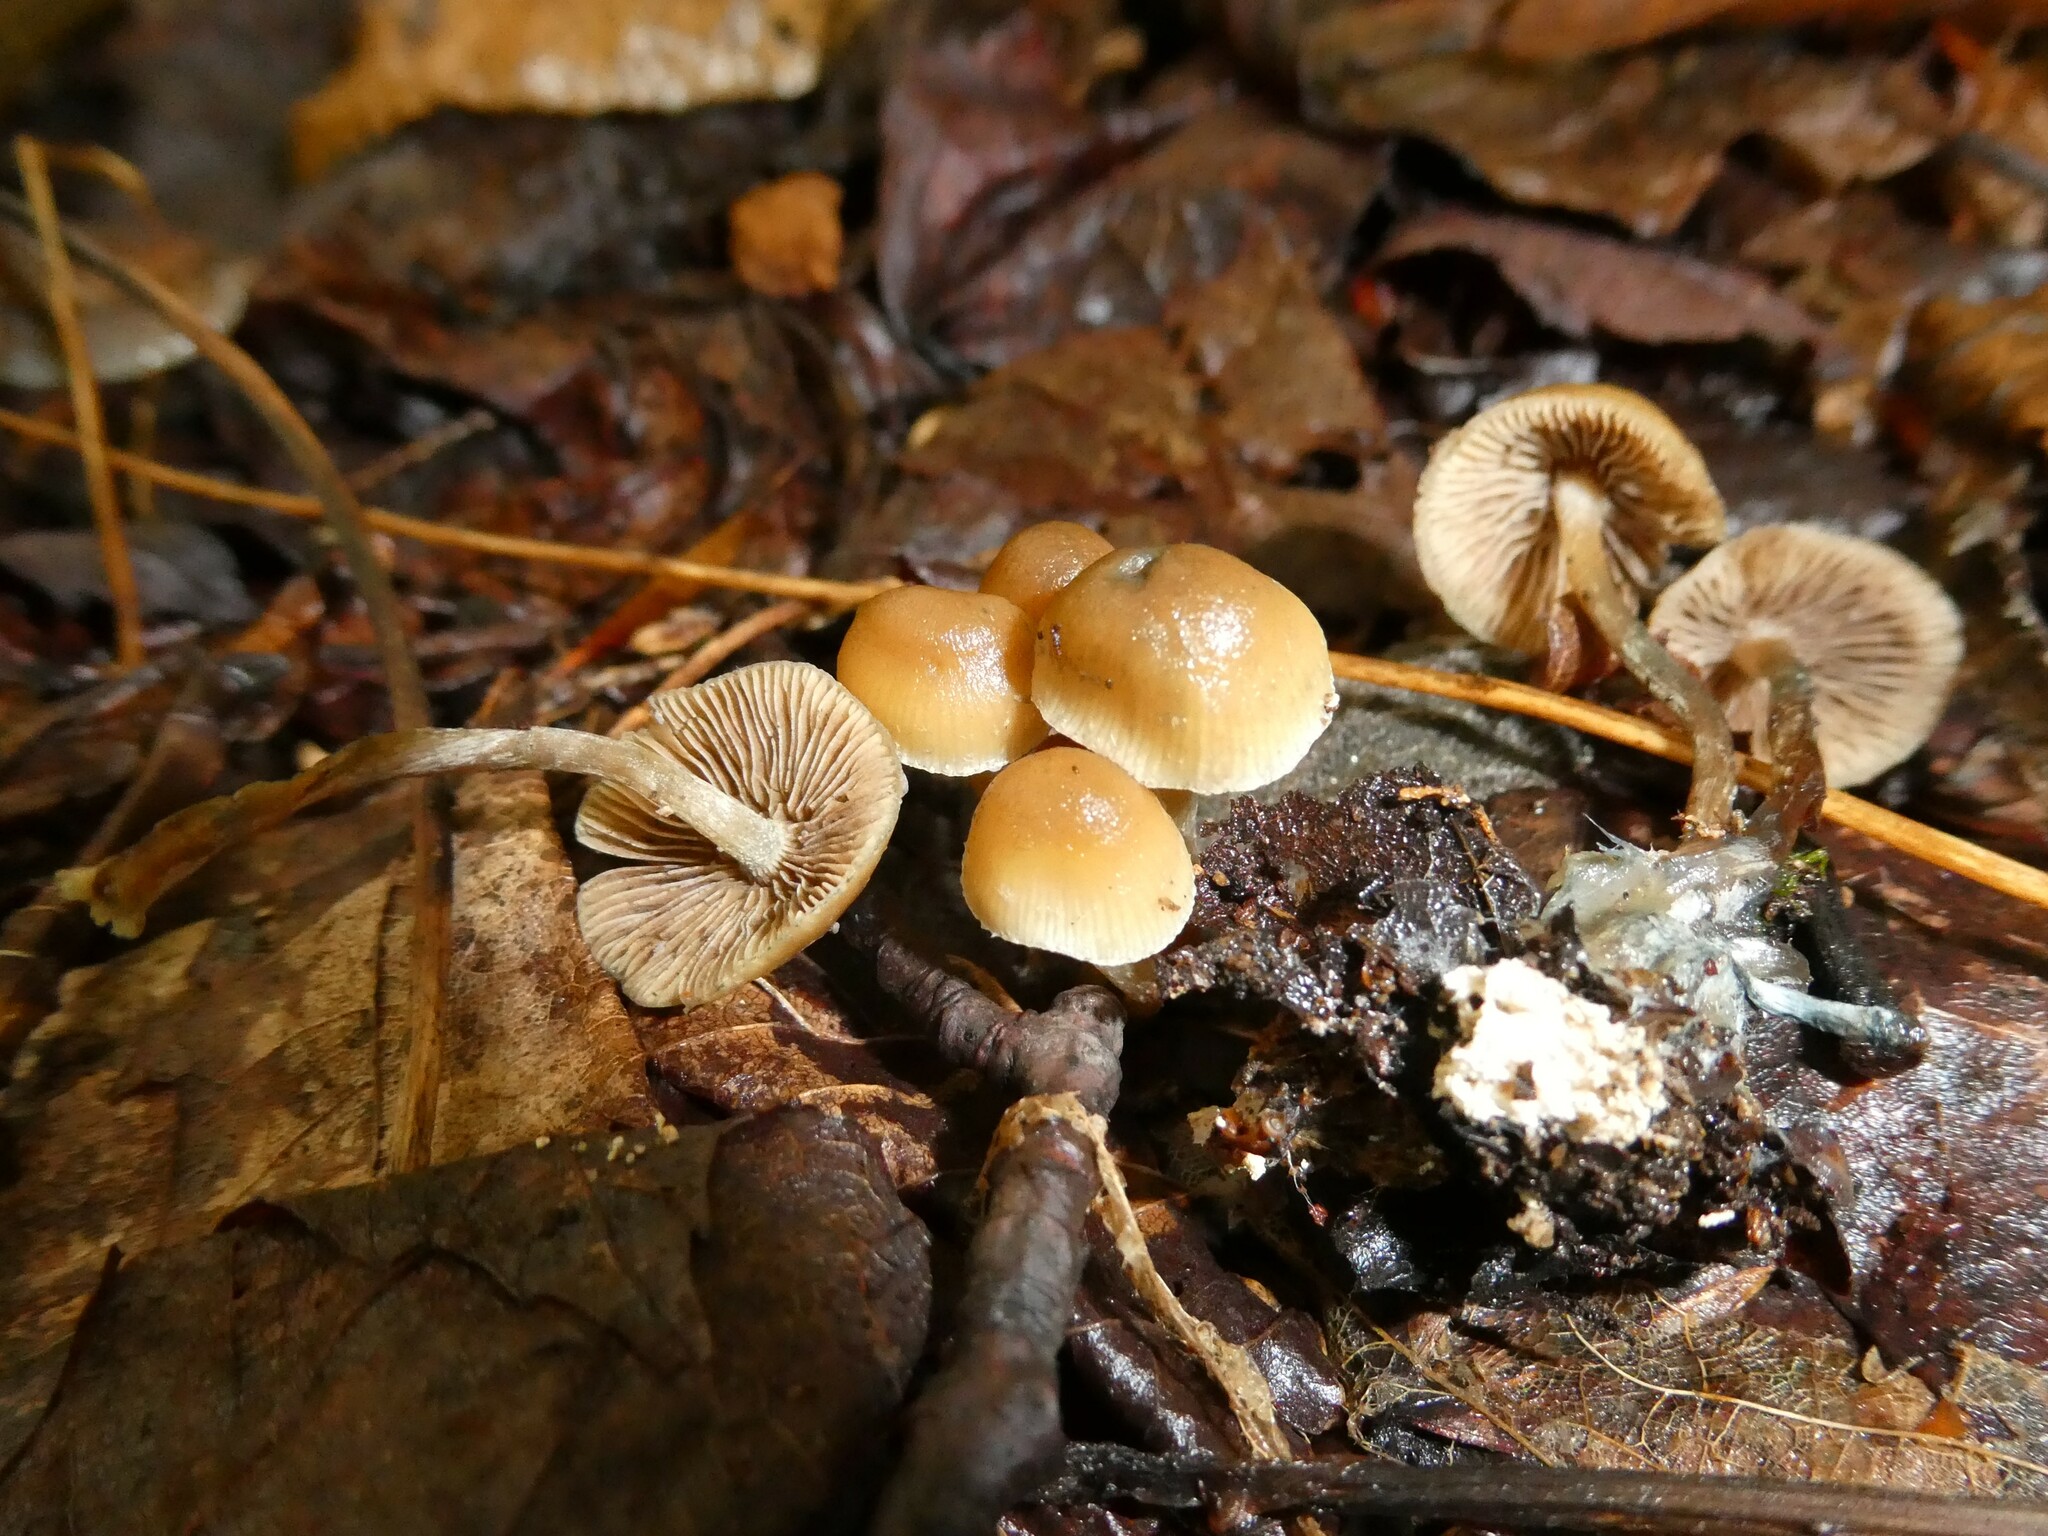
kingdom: Fungi
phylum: Basidiomycota
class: Agaricomycetes
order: Agaricales
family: Hymenogastraceae
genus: Psilocybe
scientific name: Psilocybe caerulipes
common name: Blue-foot
